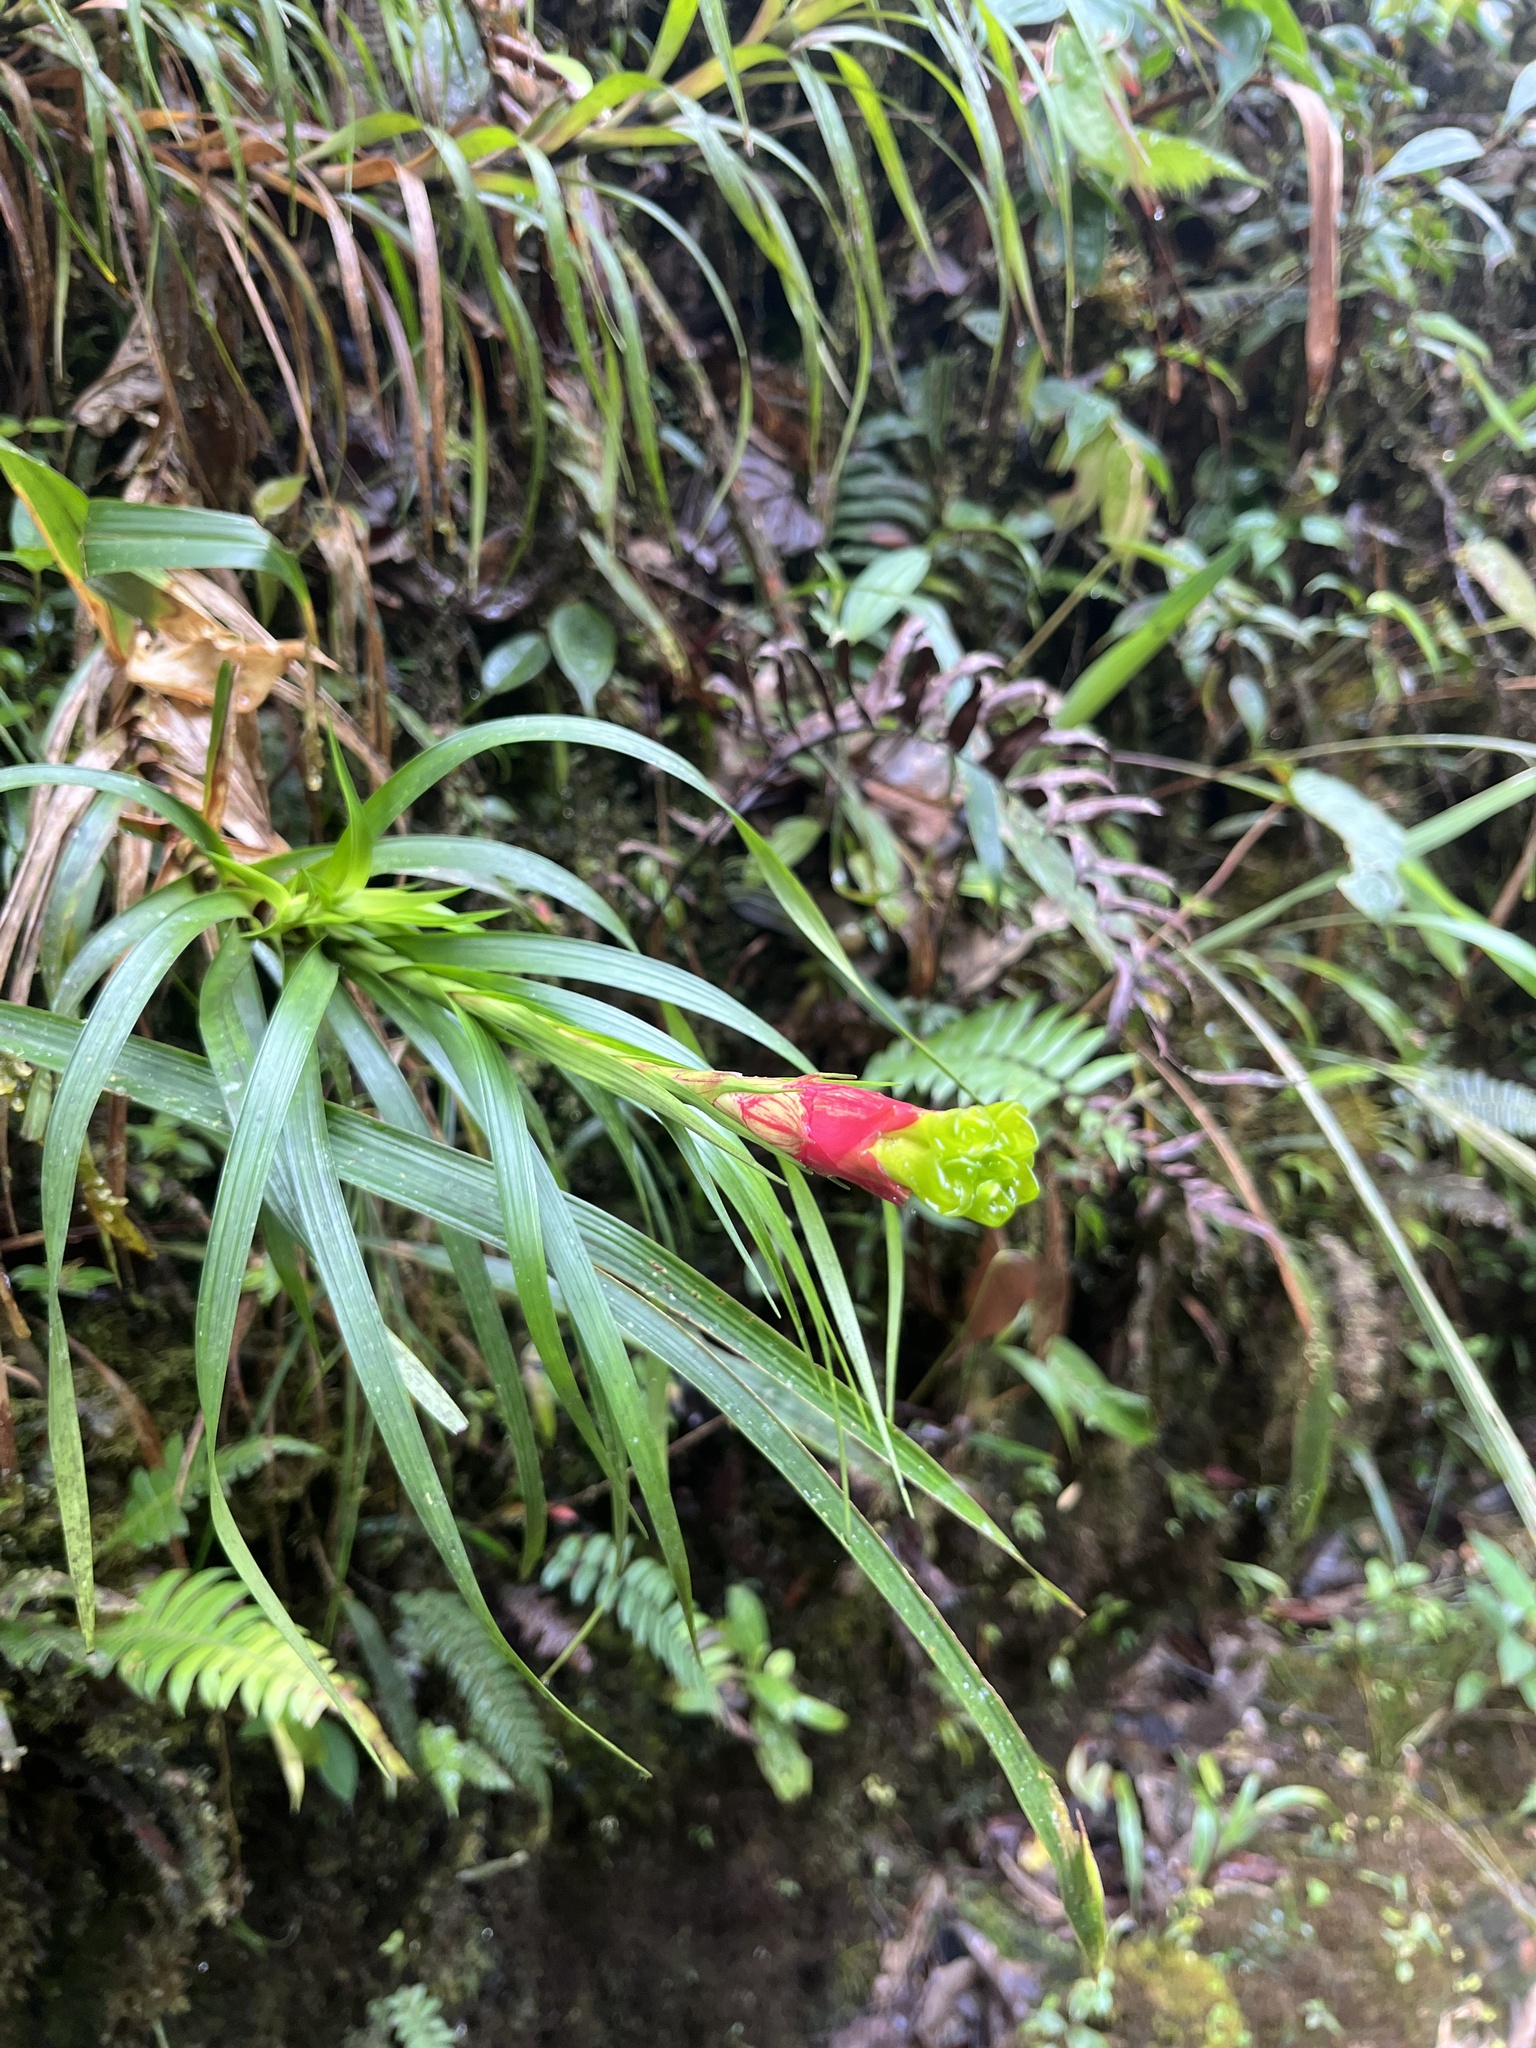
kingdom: Plantae
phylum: Tracheophyta
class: Liliopsida
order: Poales
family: Bromeliaceae
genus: Guzmania
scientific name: Guzmania pearcei
